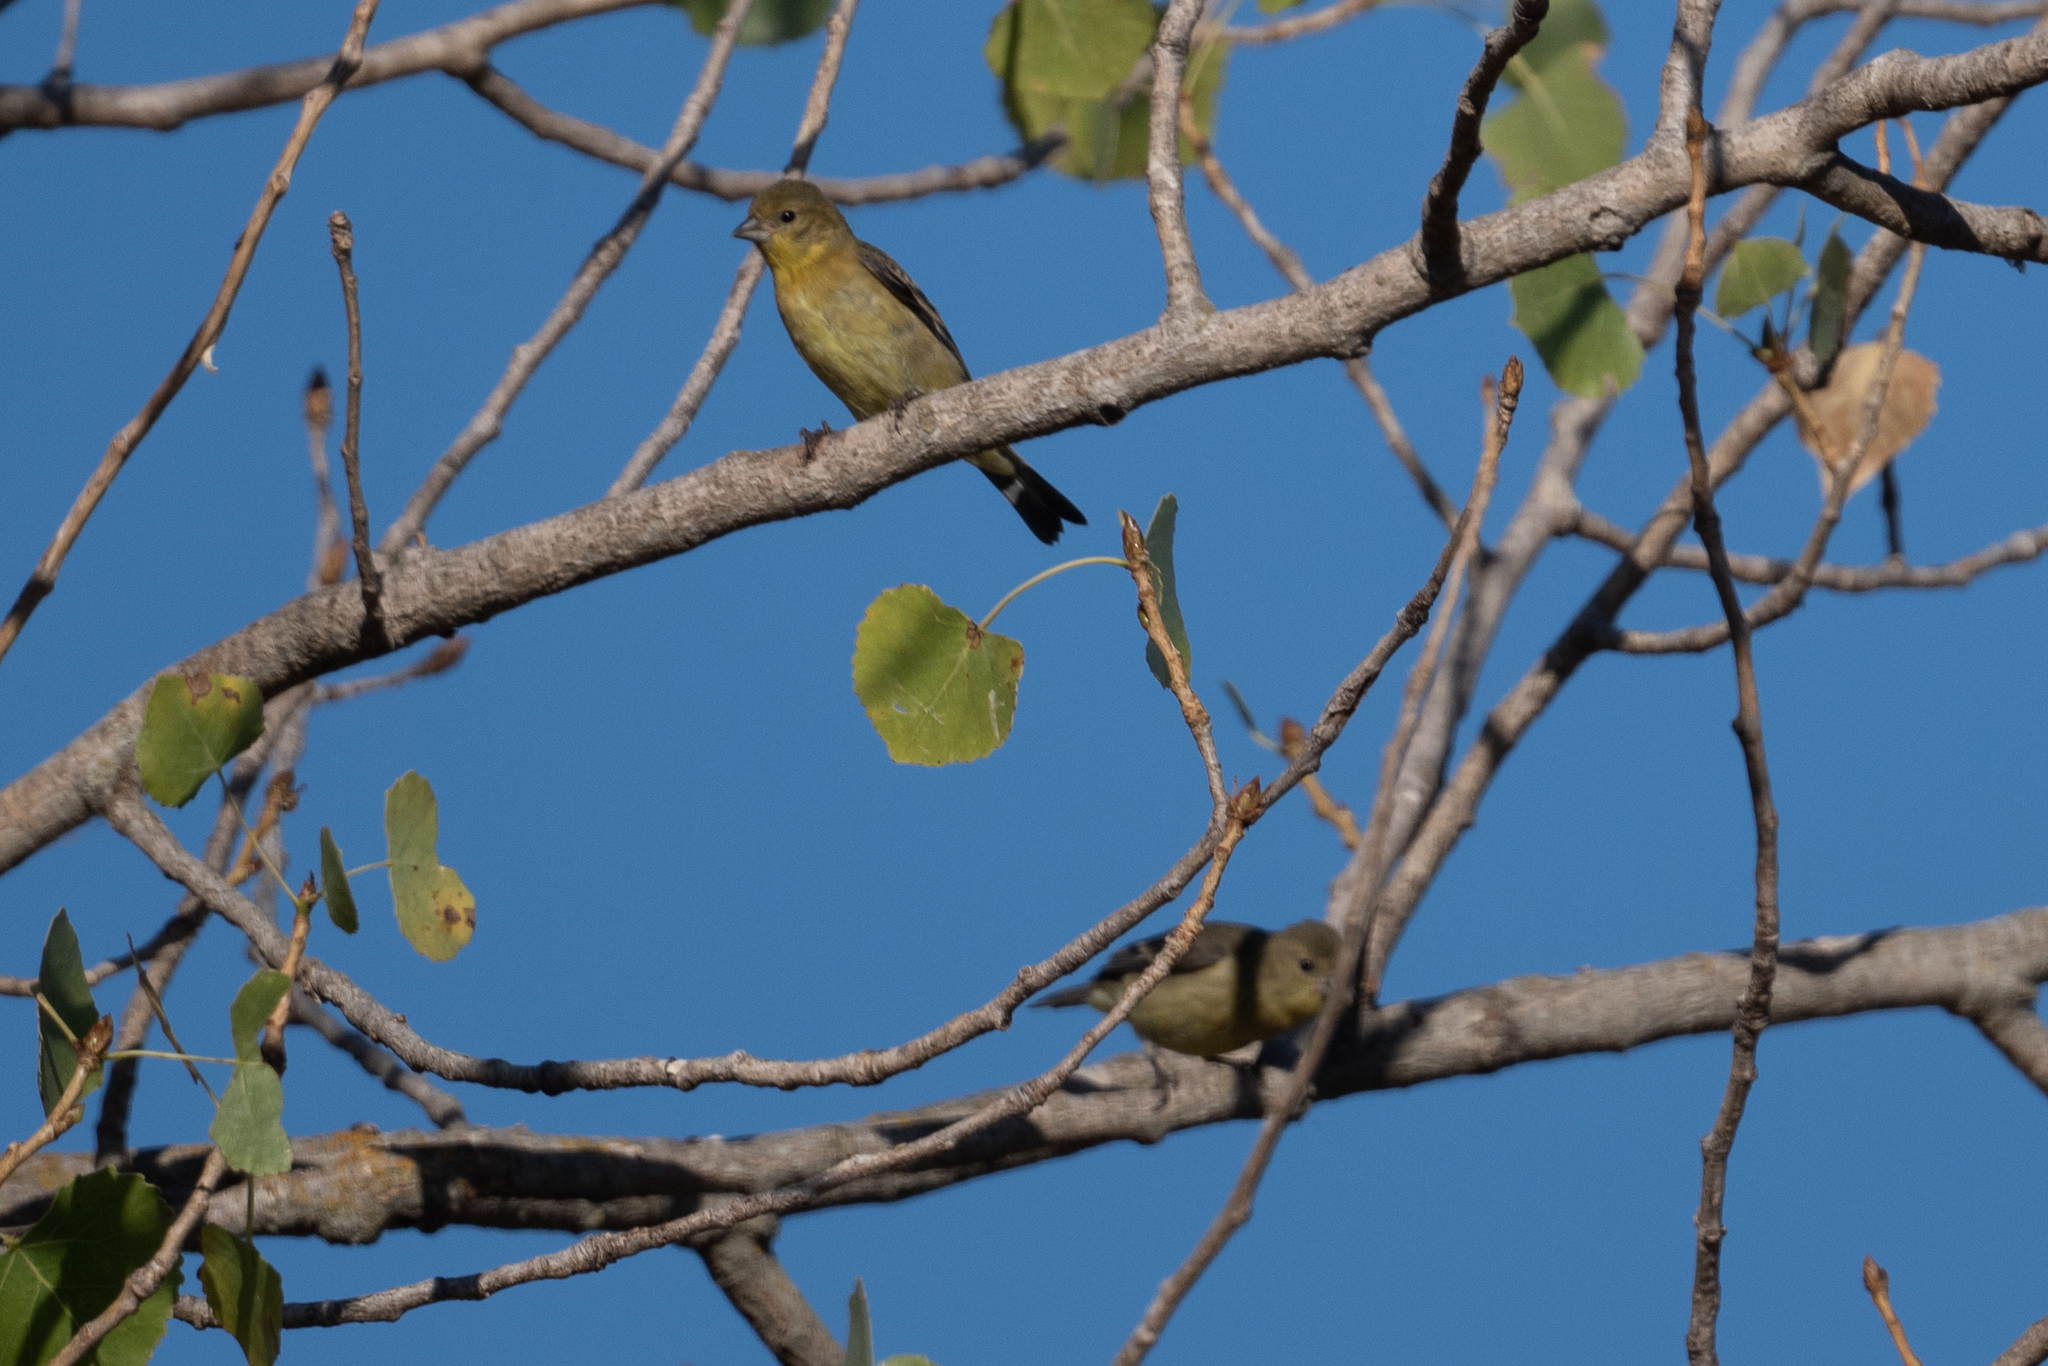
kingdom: Animalia
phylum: Chordata
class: Aves
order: Passeriformes
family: Fringillidae
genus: Spinus
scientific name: Spinus psaltria
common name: Lesser goldfinch
